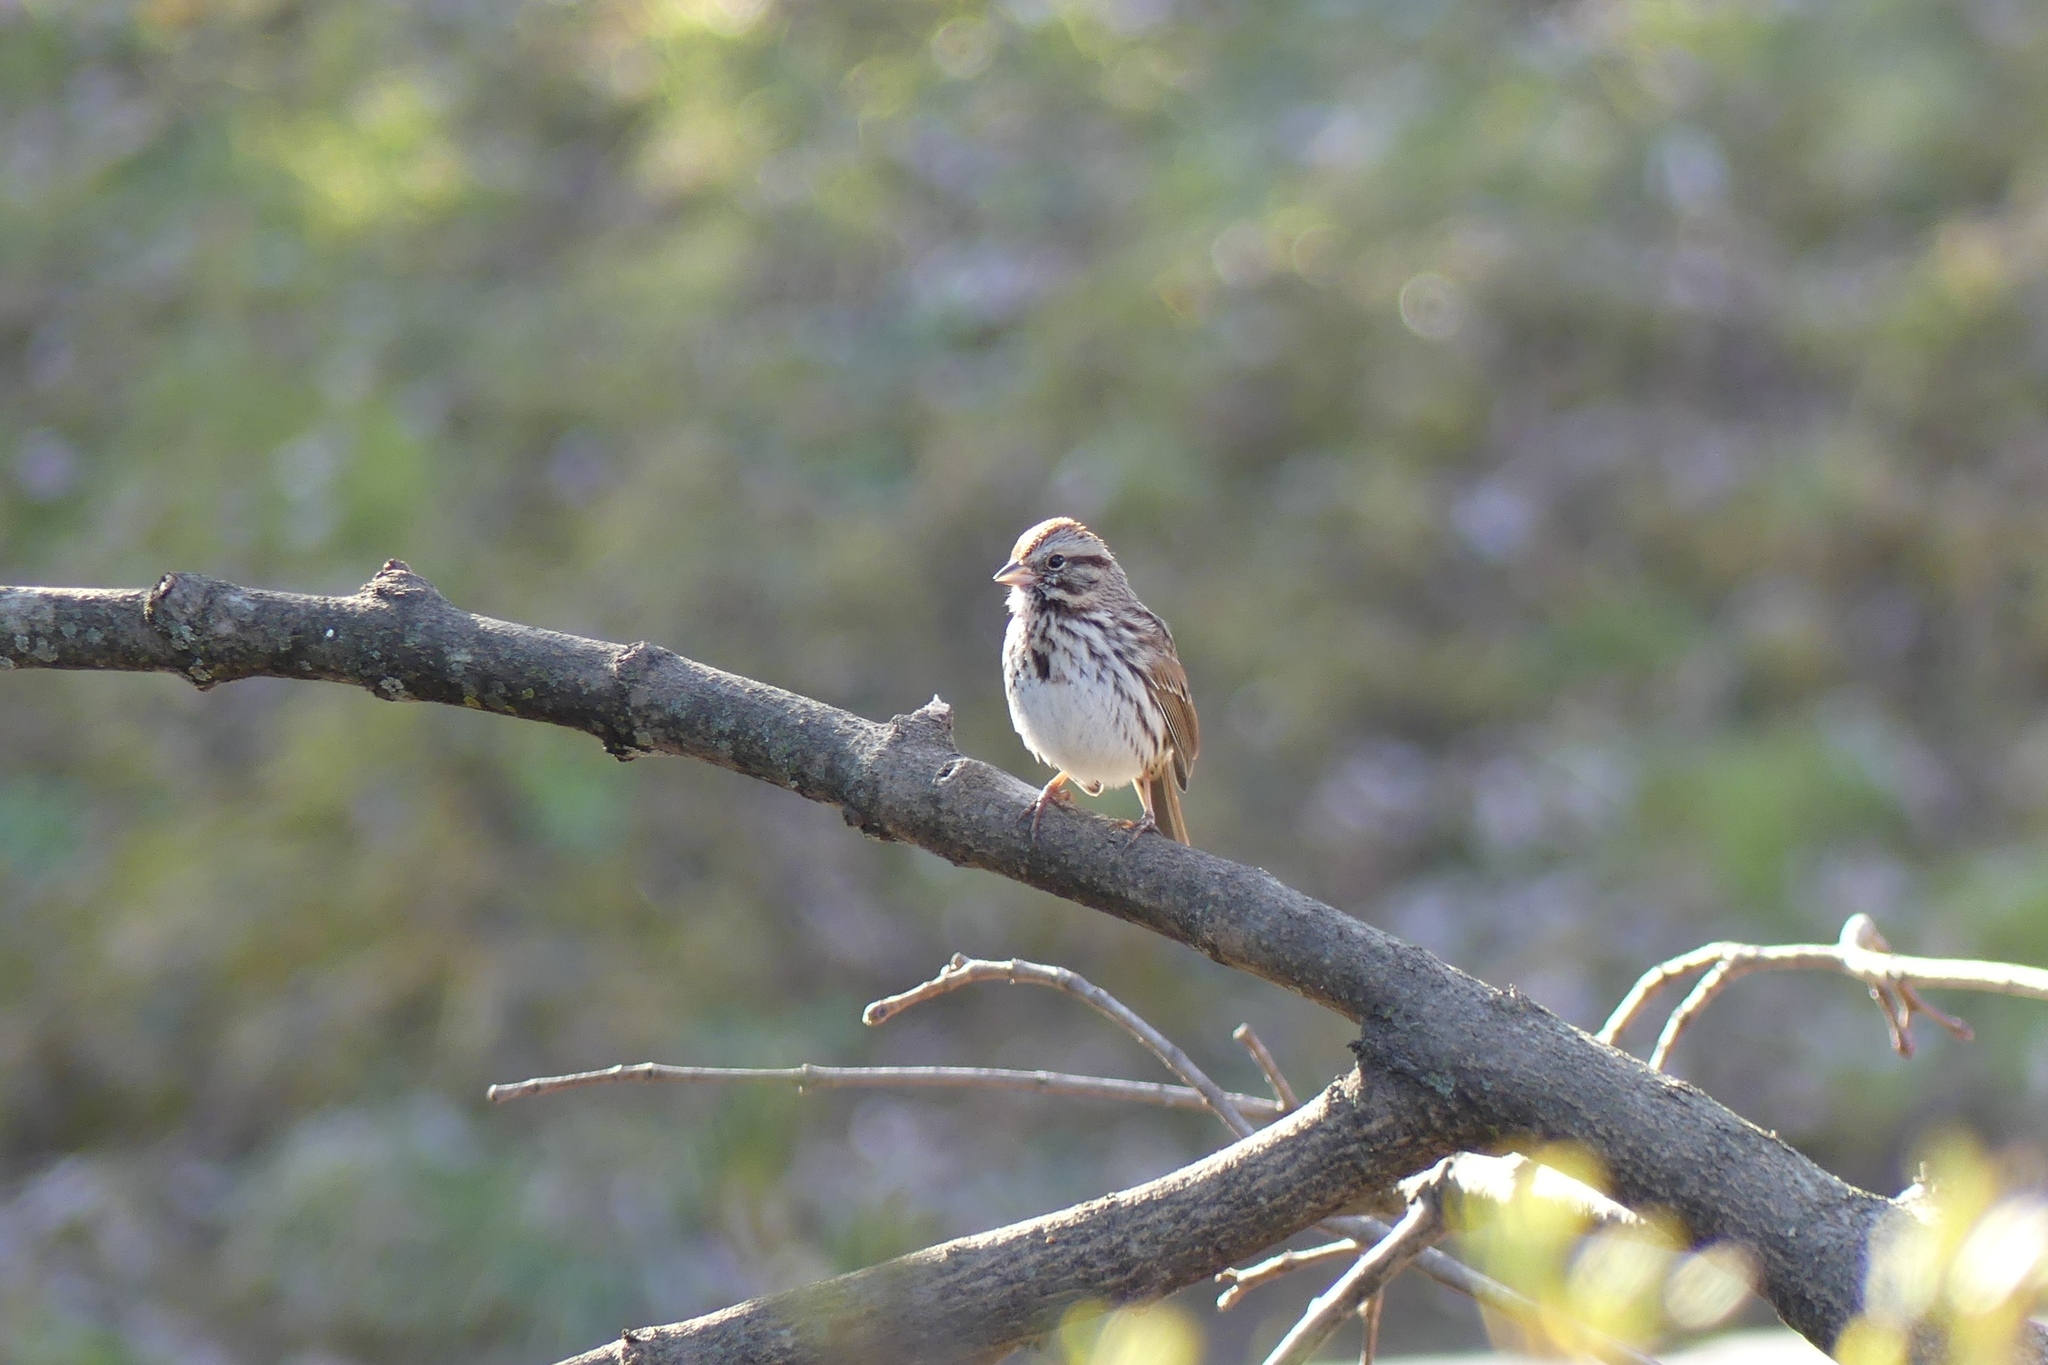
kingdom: Animalia
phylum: Chordata
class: Aves
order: Passeriformes
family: Passerellidae
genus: Melospiza
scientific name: Melospiza melodia
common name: Song sparrow
